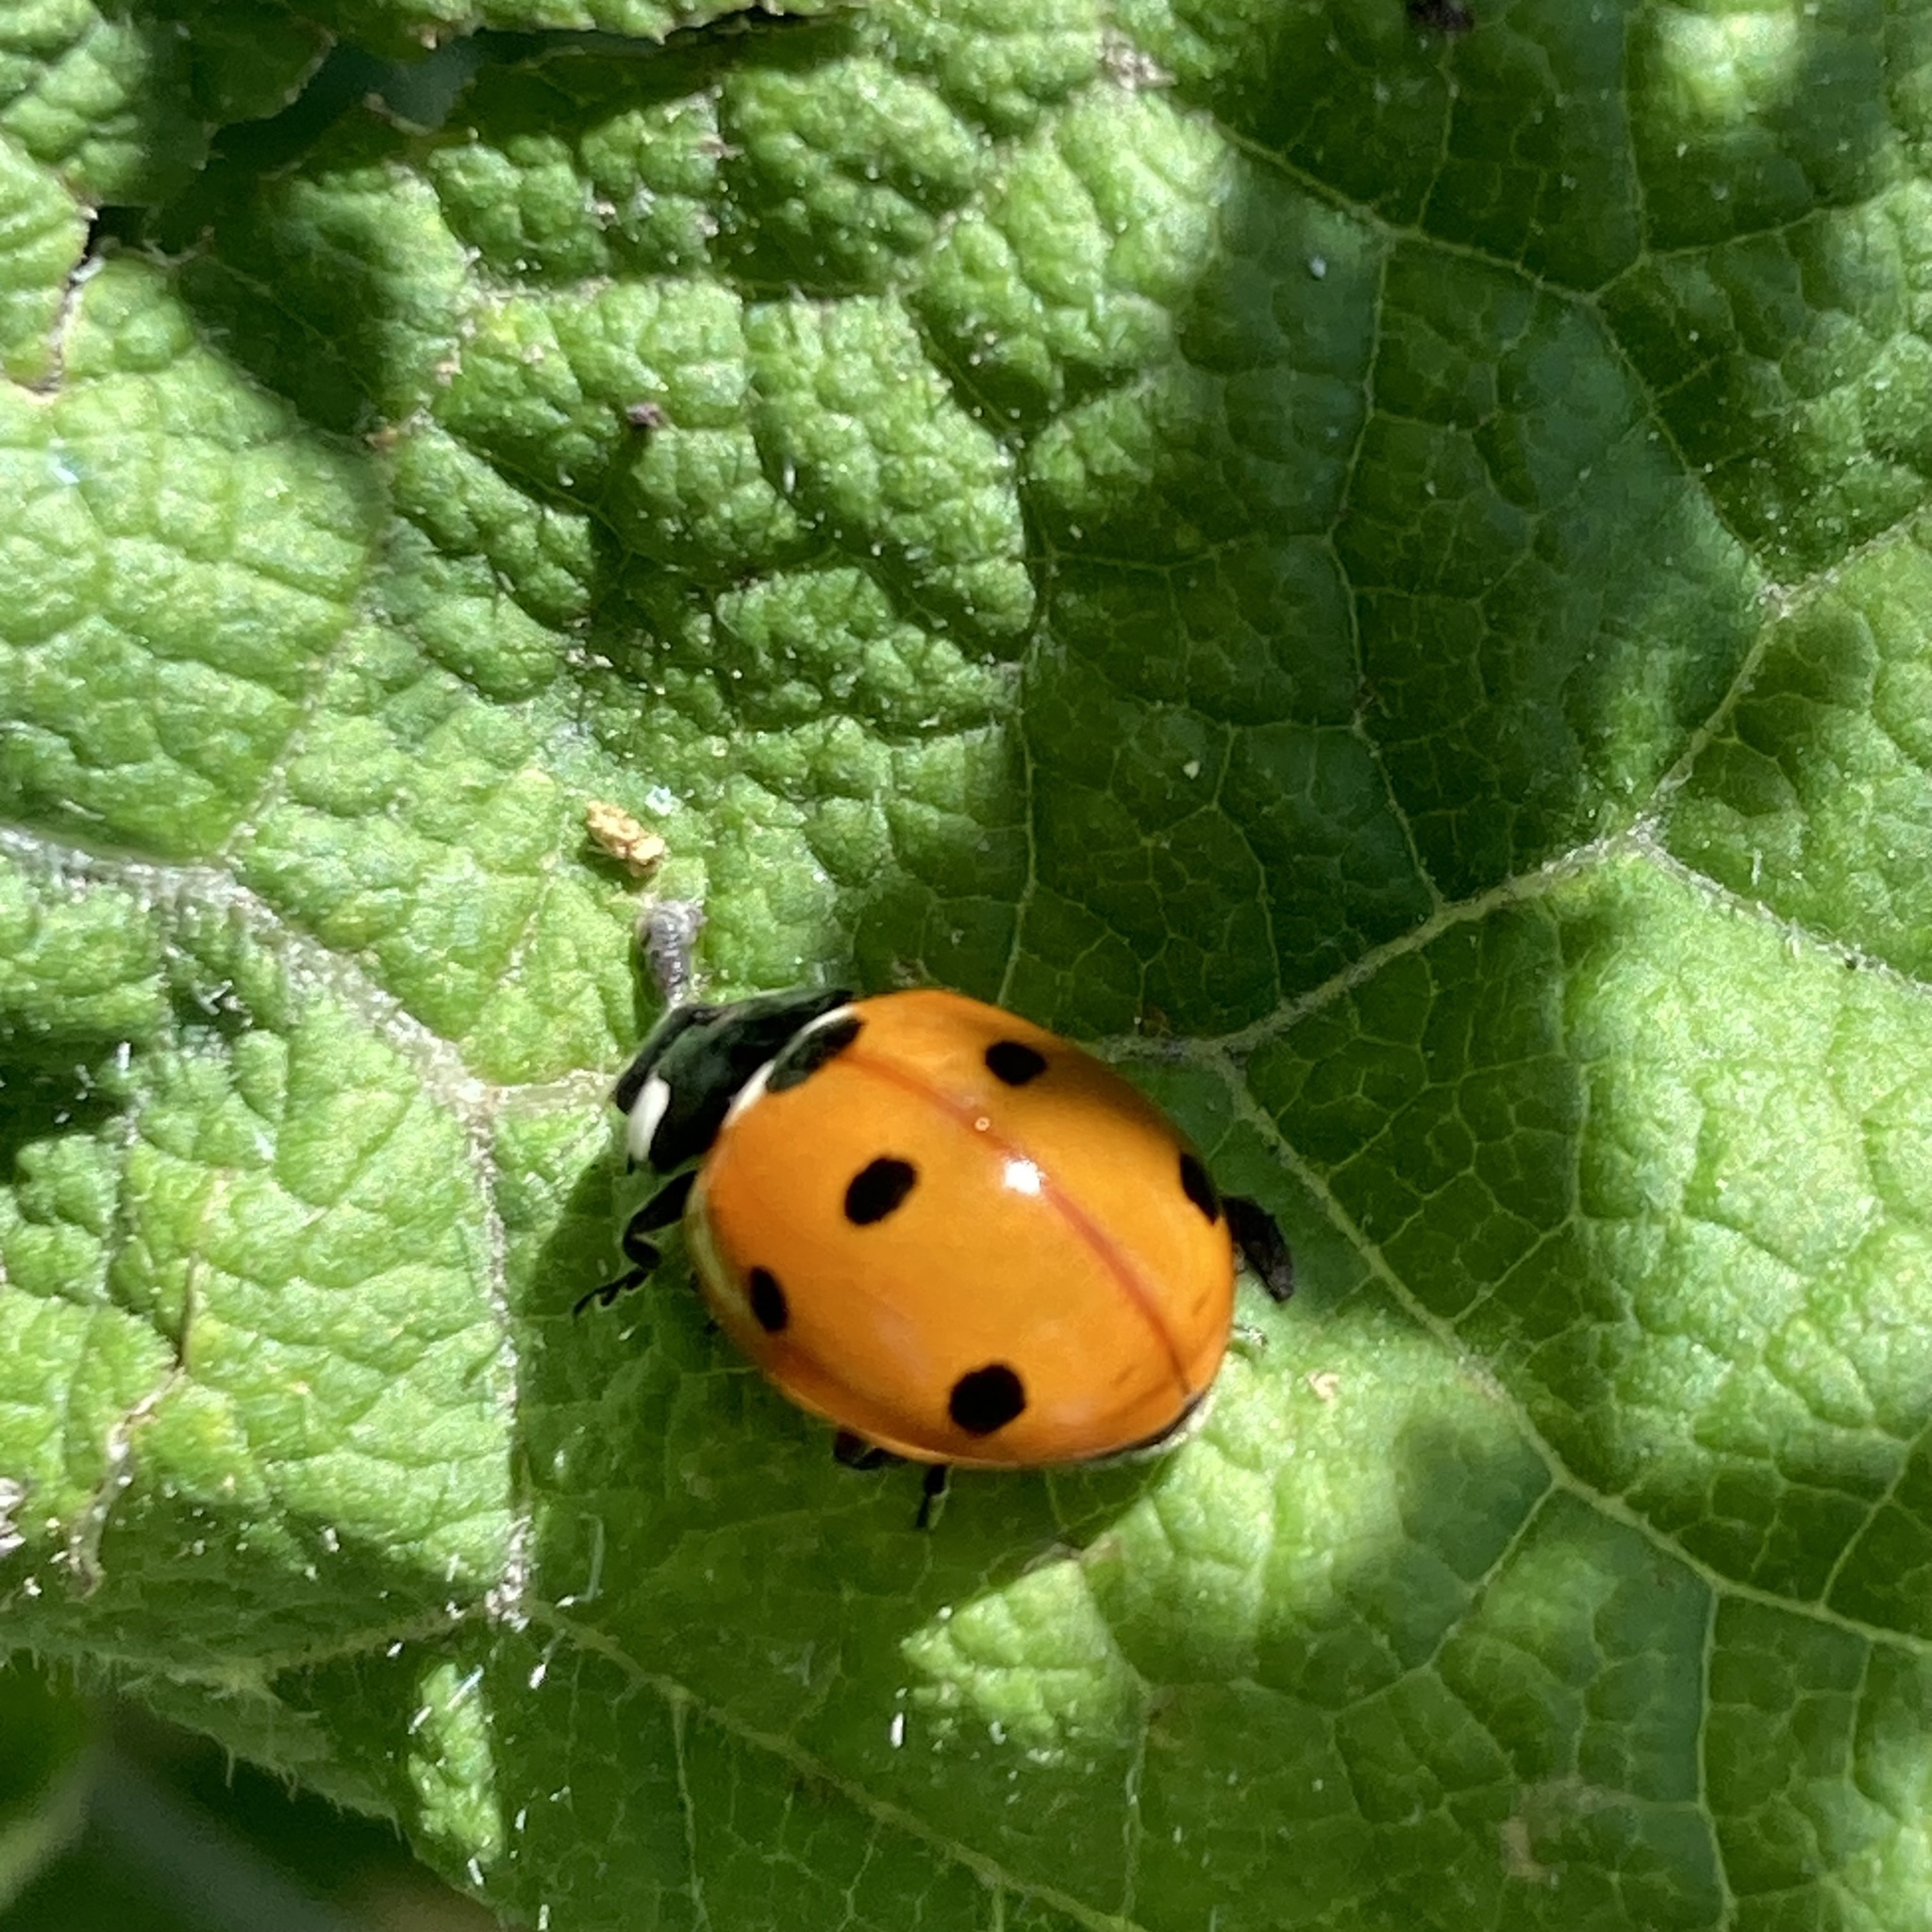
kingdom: Animalia
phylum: Arthropoda
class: Insecta
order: Coleoptera
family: Coccinellidae
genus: Coccinella
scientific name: Coccinella septempunctata
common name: Sevenspotted lady beetle
